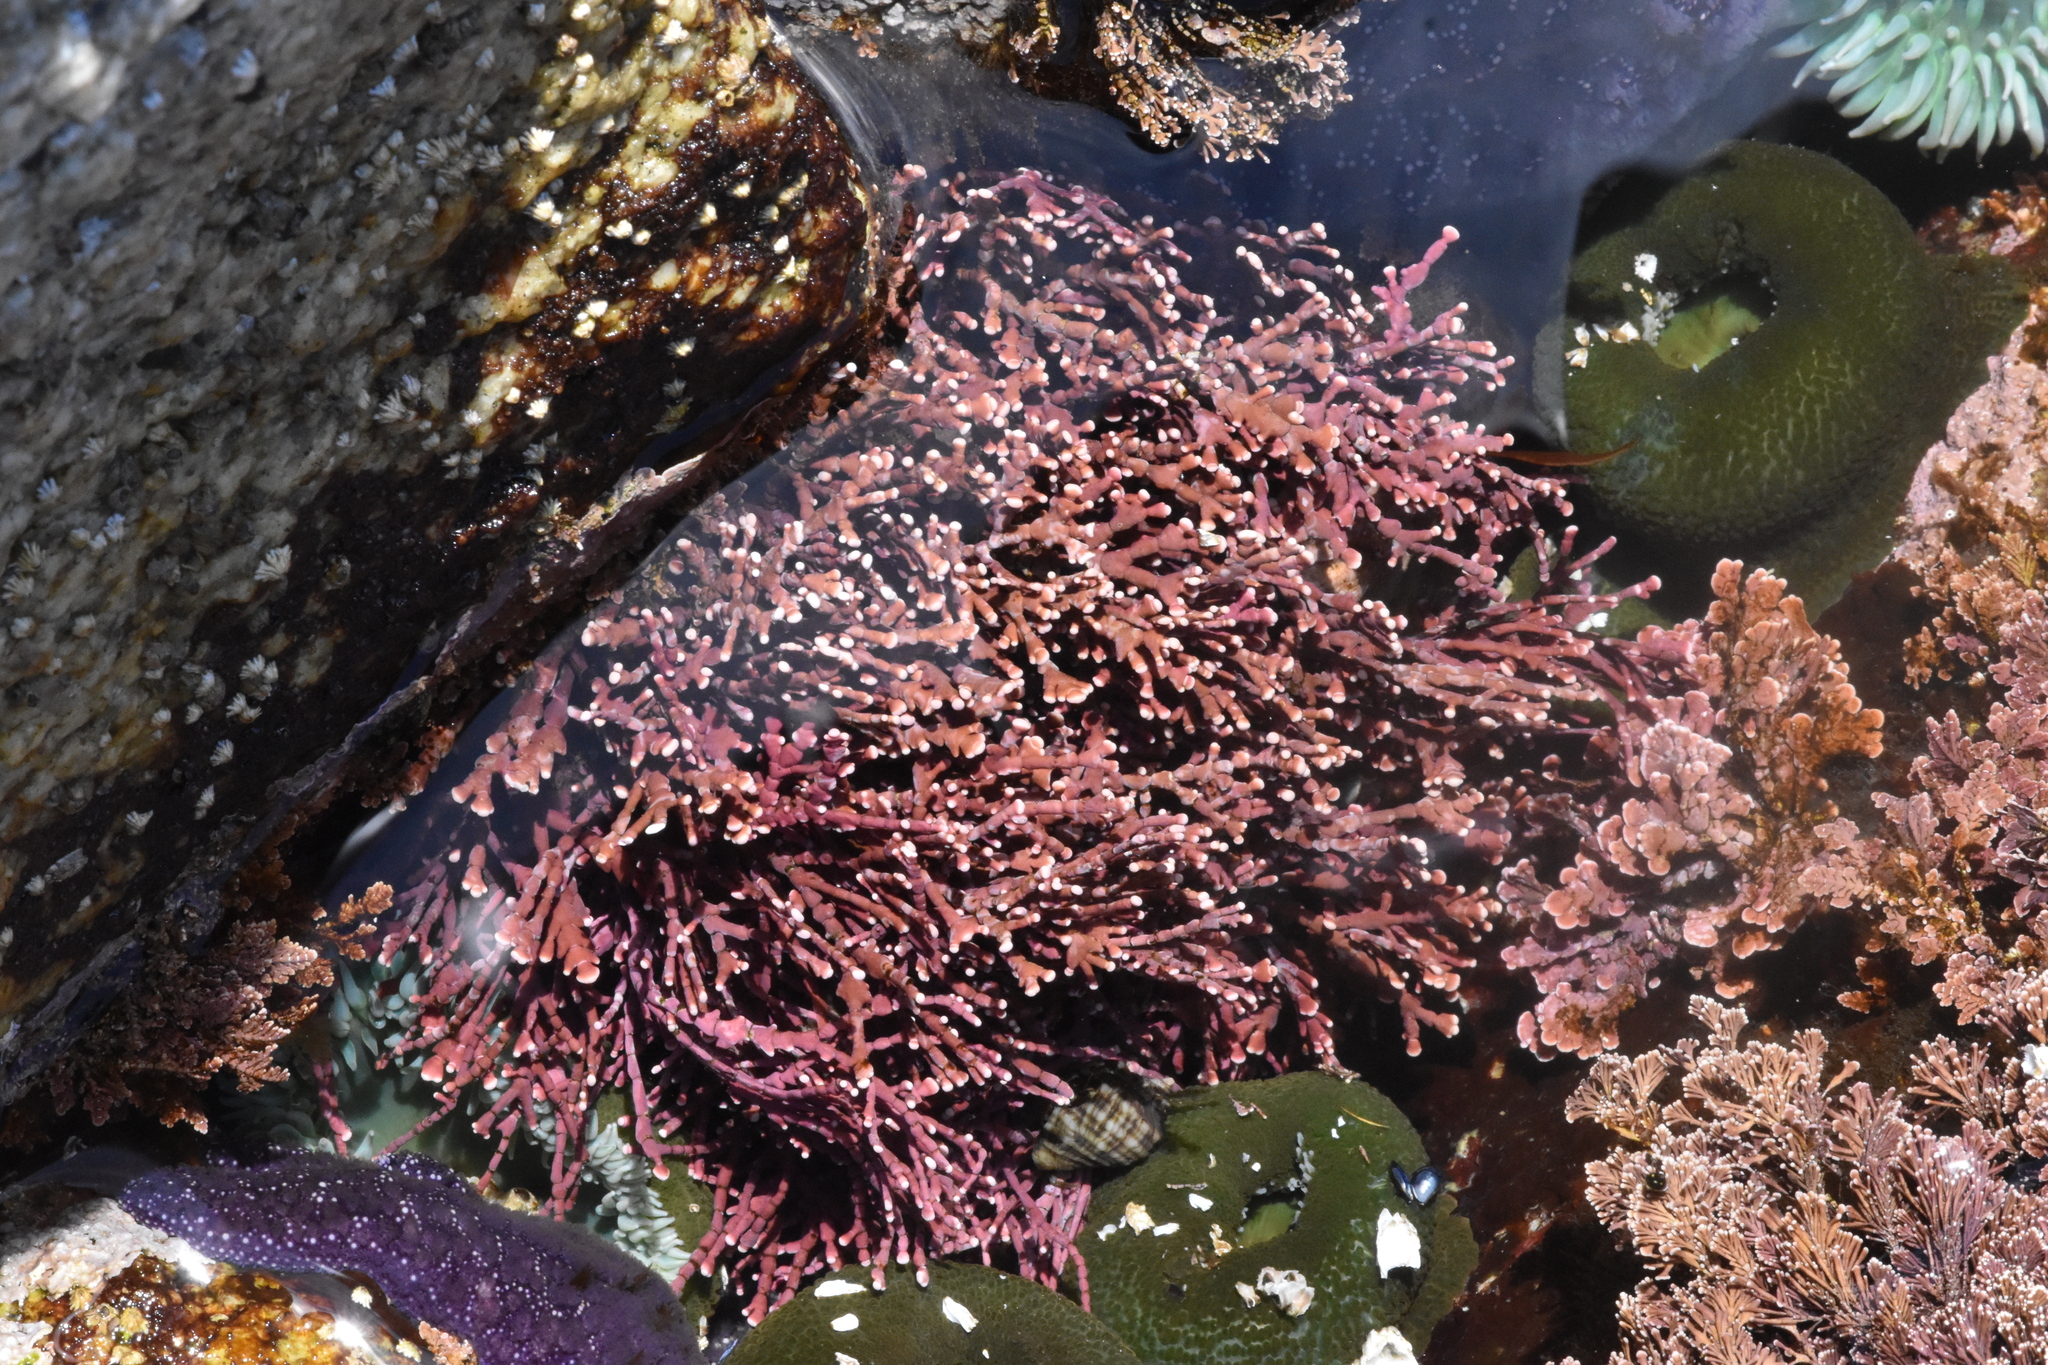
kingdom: Plantae
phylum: Rhodophyta
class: Florideophyceae
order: Corallinales
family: Corallinaceae
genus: Calliarthron
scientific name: Calliarthron tuberculosum
